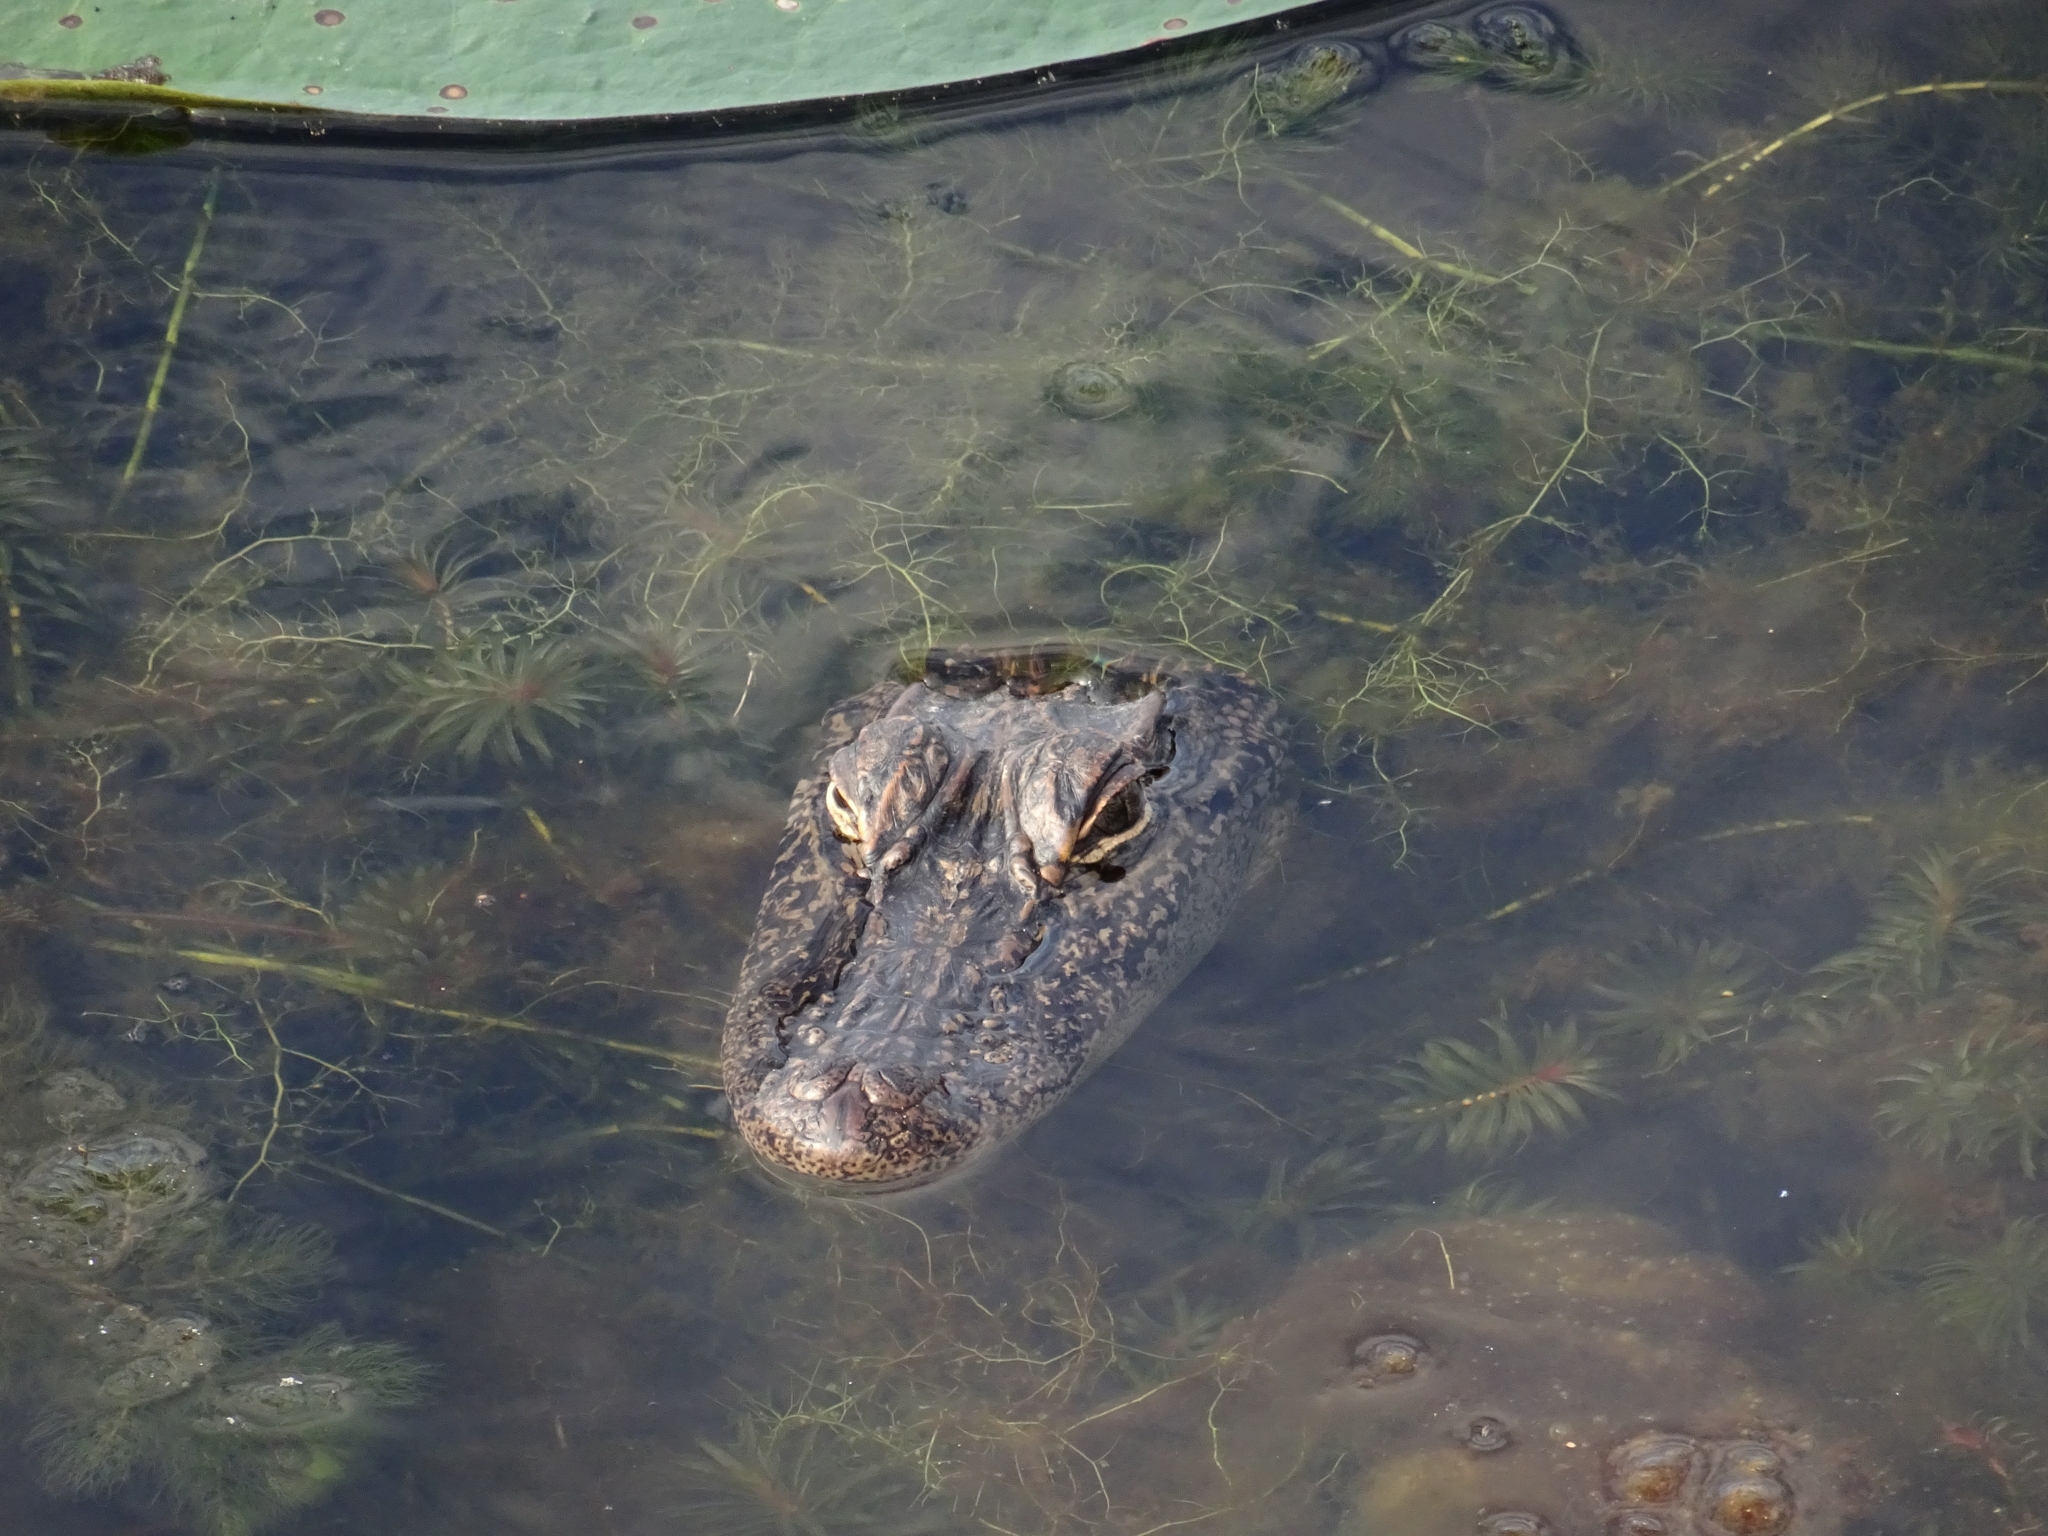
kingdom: Animalia
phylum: Chordata
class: Crocodylia
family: Alligatoridae
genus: Alligator
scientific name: Alligator mississippiensis
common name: American alligator
